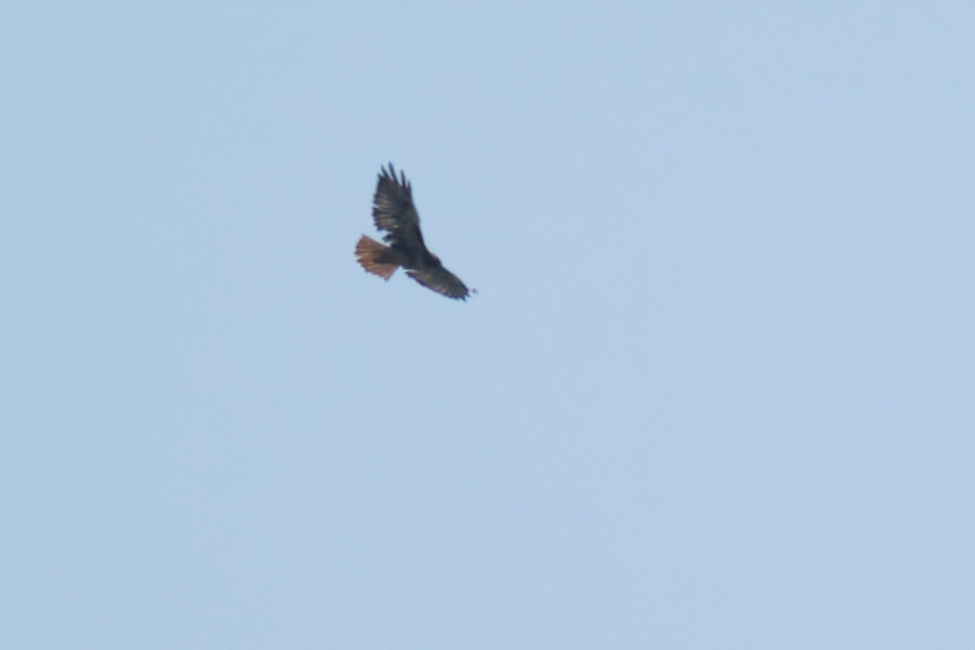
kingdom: Animalia
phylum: Chordata
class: Aves
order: Accipitriformes
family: Accipitridae
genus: Buteo
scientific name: Buteo jamaicensis
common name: Red-tailed hawk
